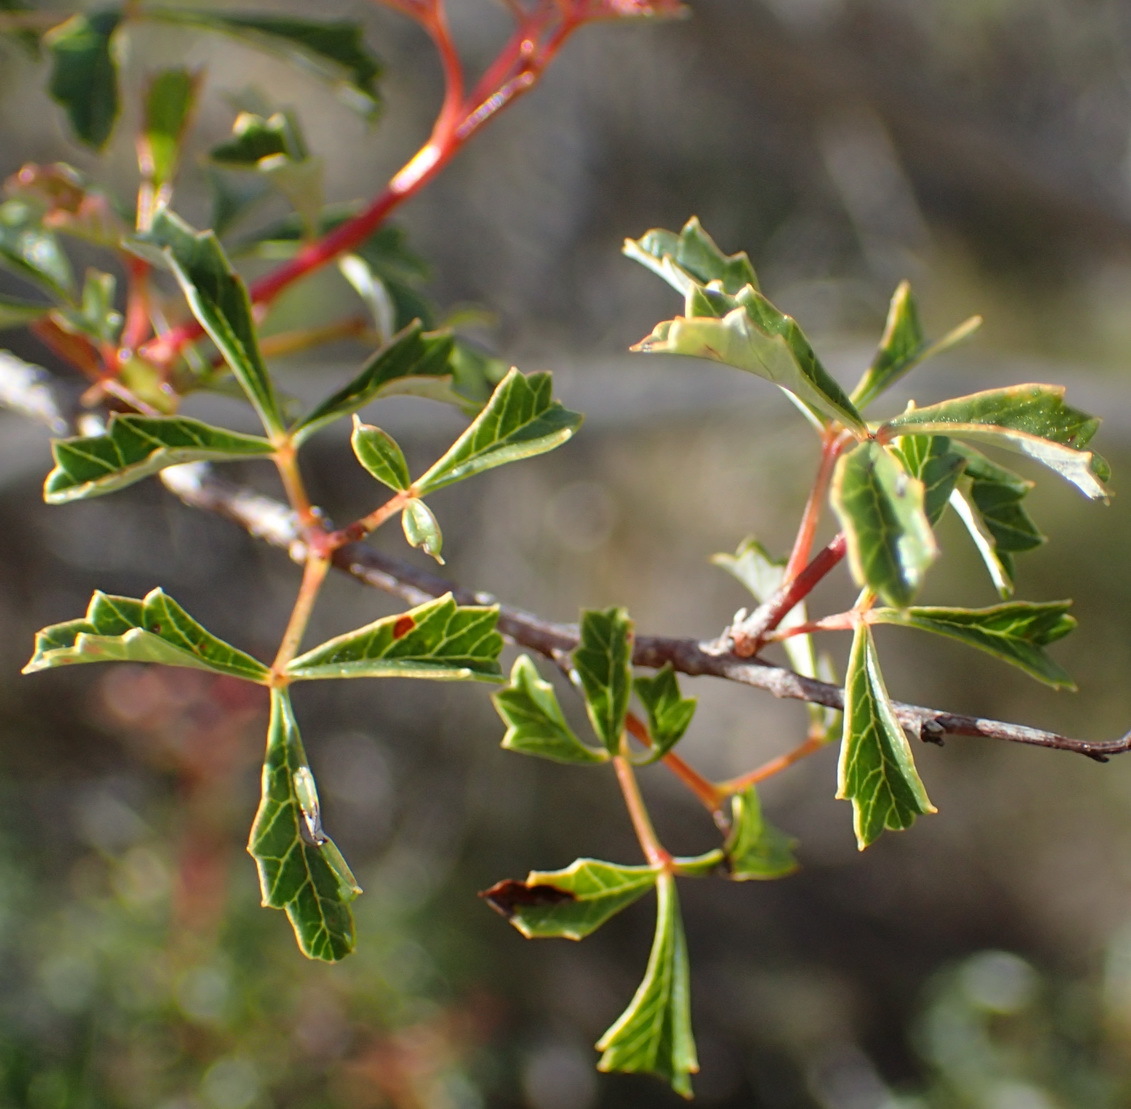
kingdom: Plantae
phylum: Tracheophyta
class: Magnoliopsida
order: Sapindales
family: Anacardiaceae
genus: Searsia
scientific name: Searsia dissecta
